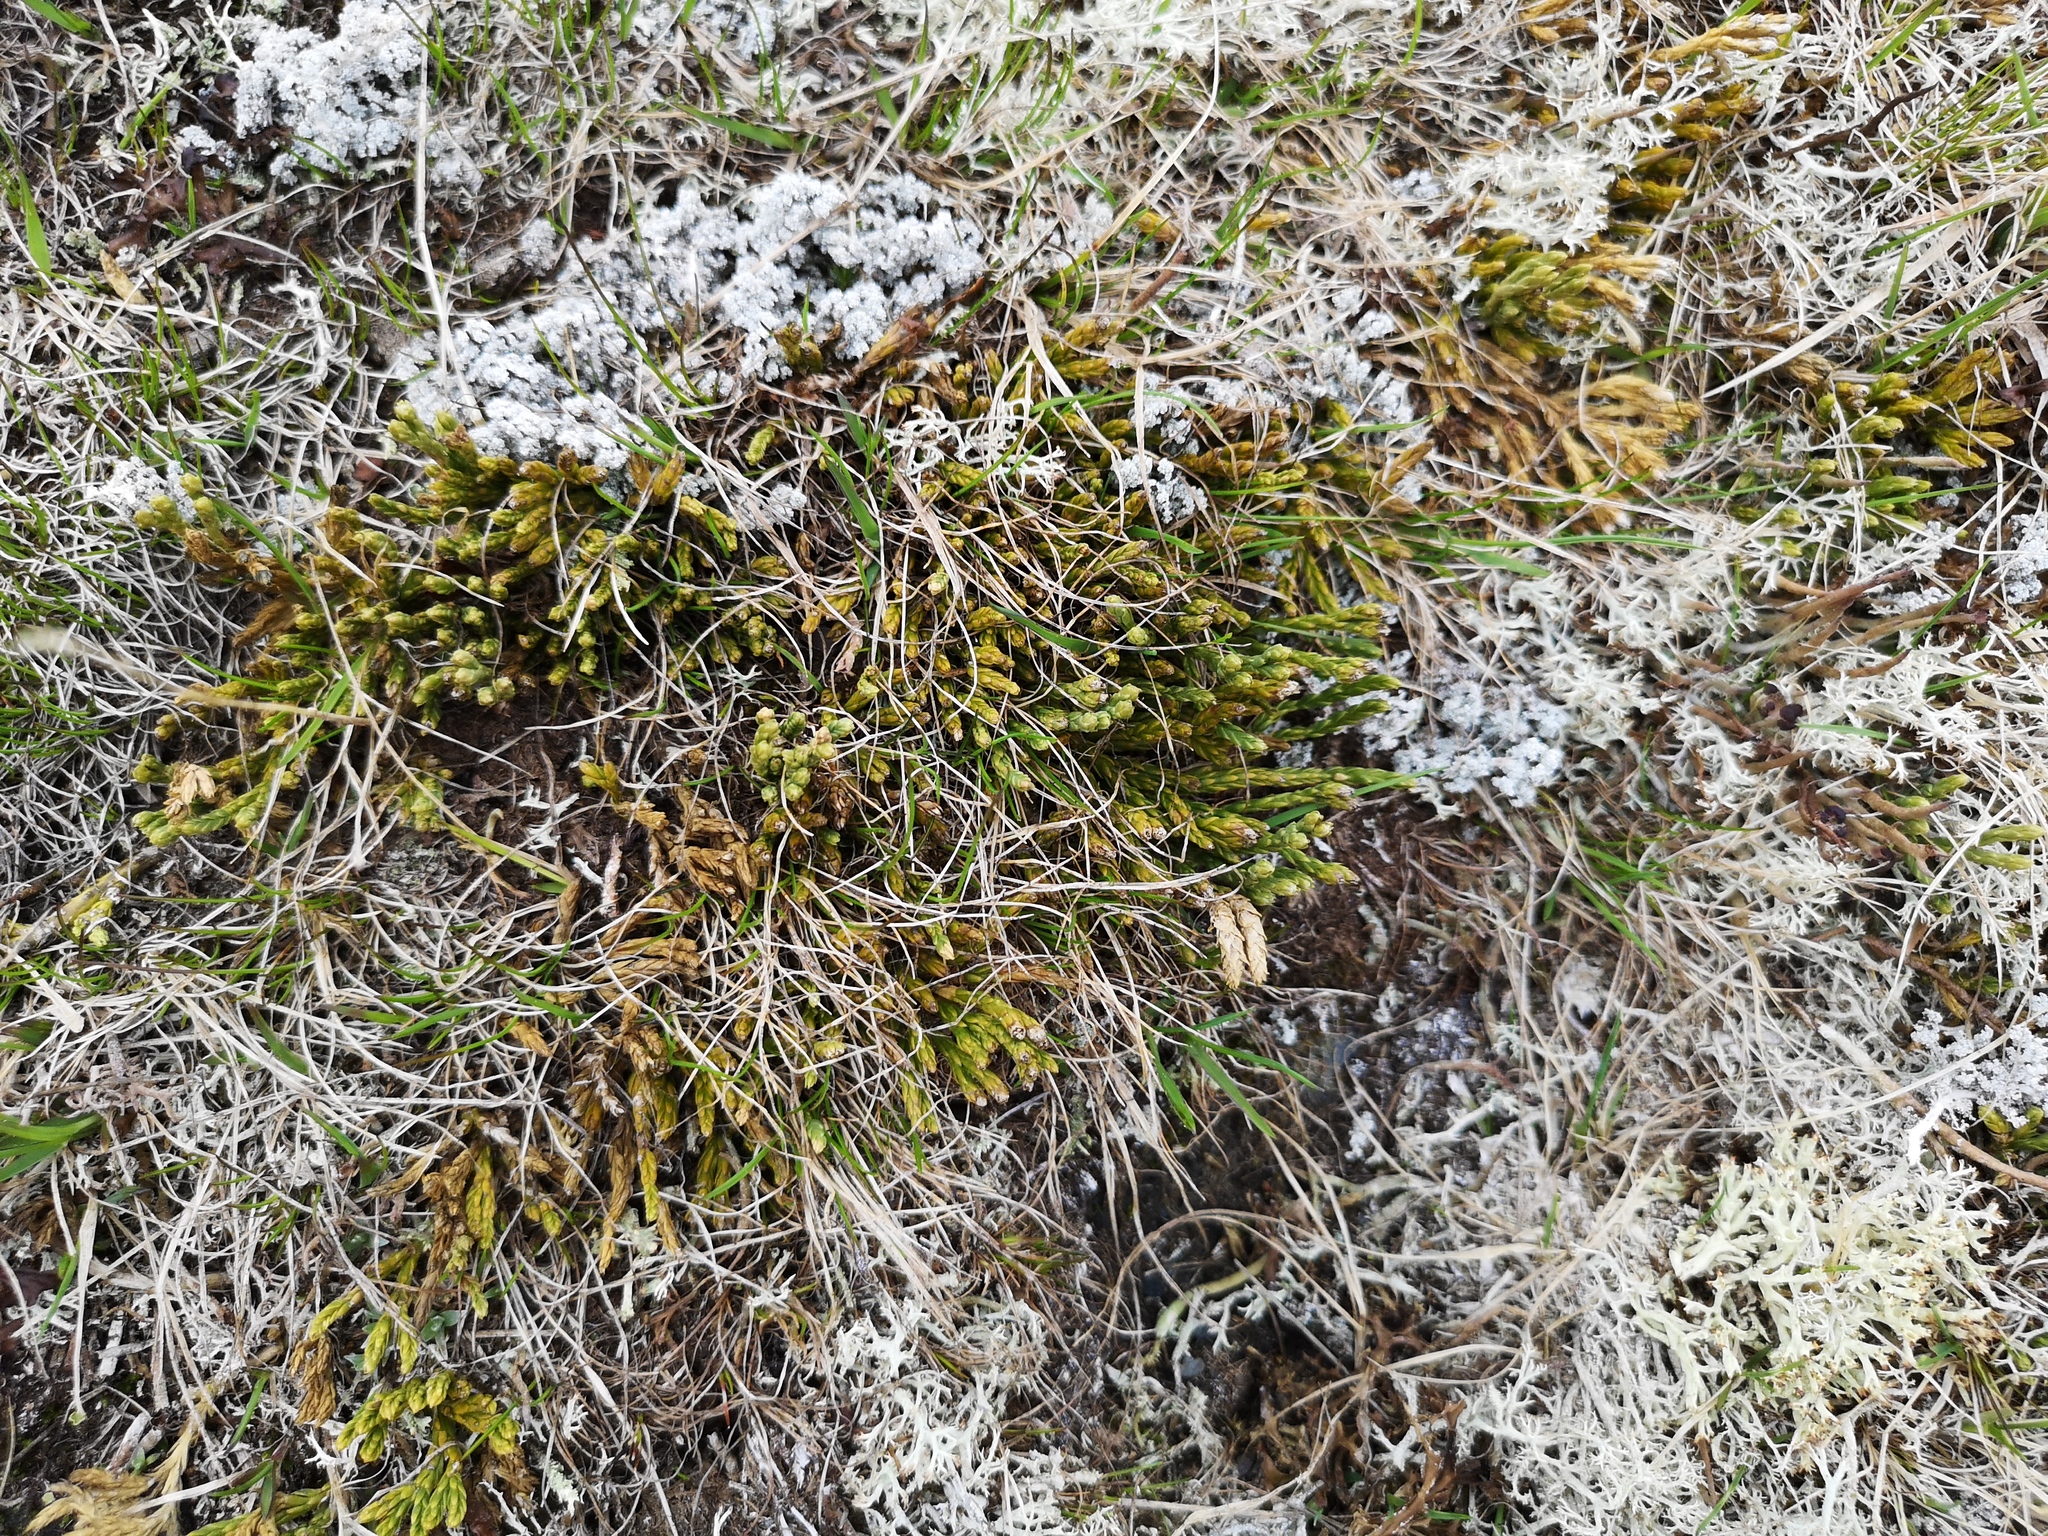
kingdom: Plantae
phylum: Tracheophyta
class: Lycopodiopsida
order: Lycopodiales
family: Lycopodiaceae
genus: Diphasiastrum
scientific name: Diphasiastrum alpinum
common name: Alpine clubmoss
